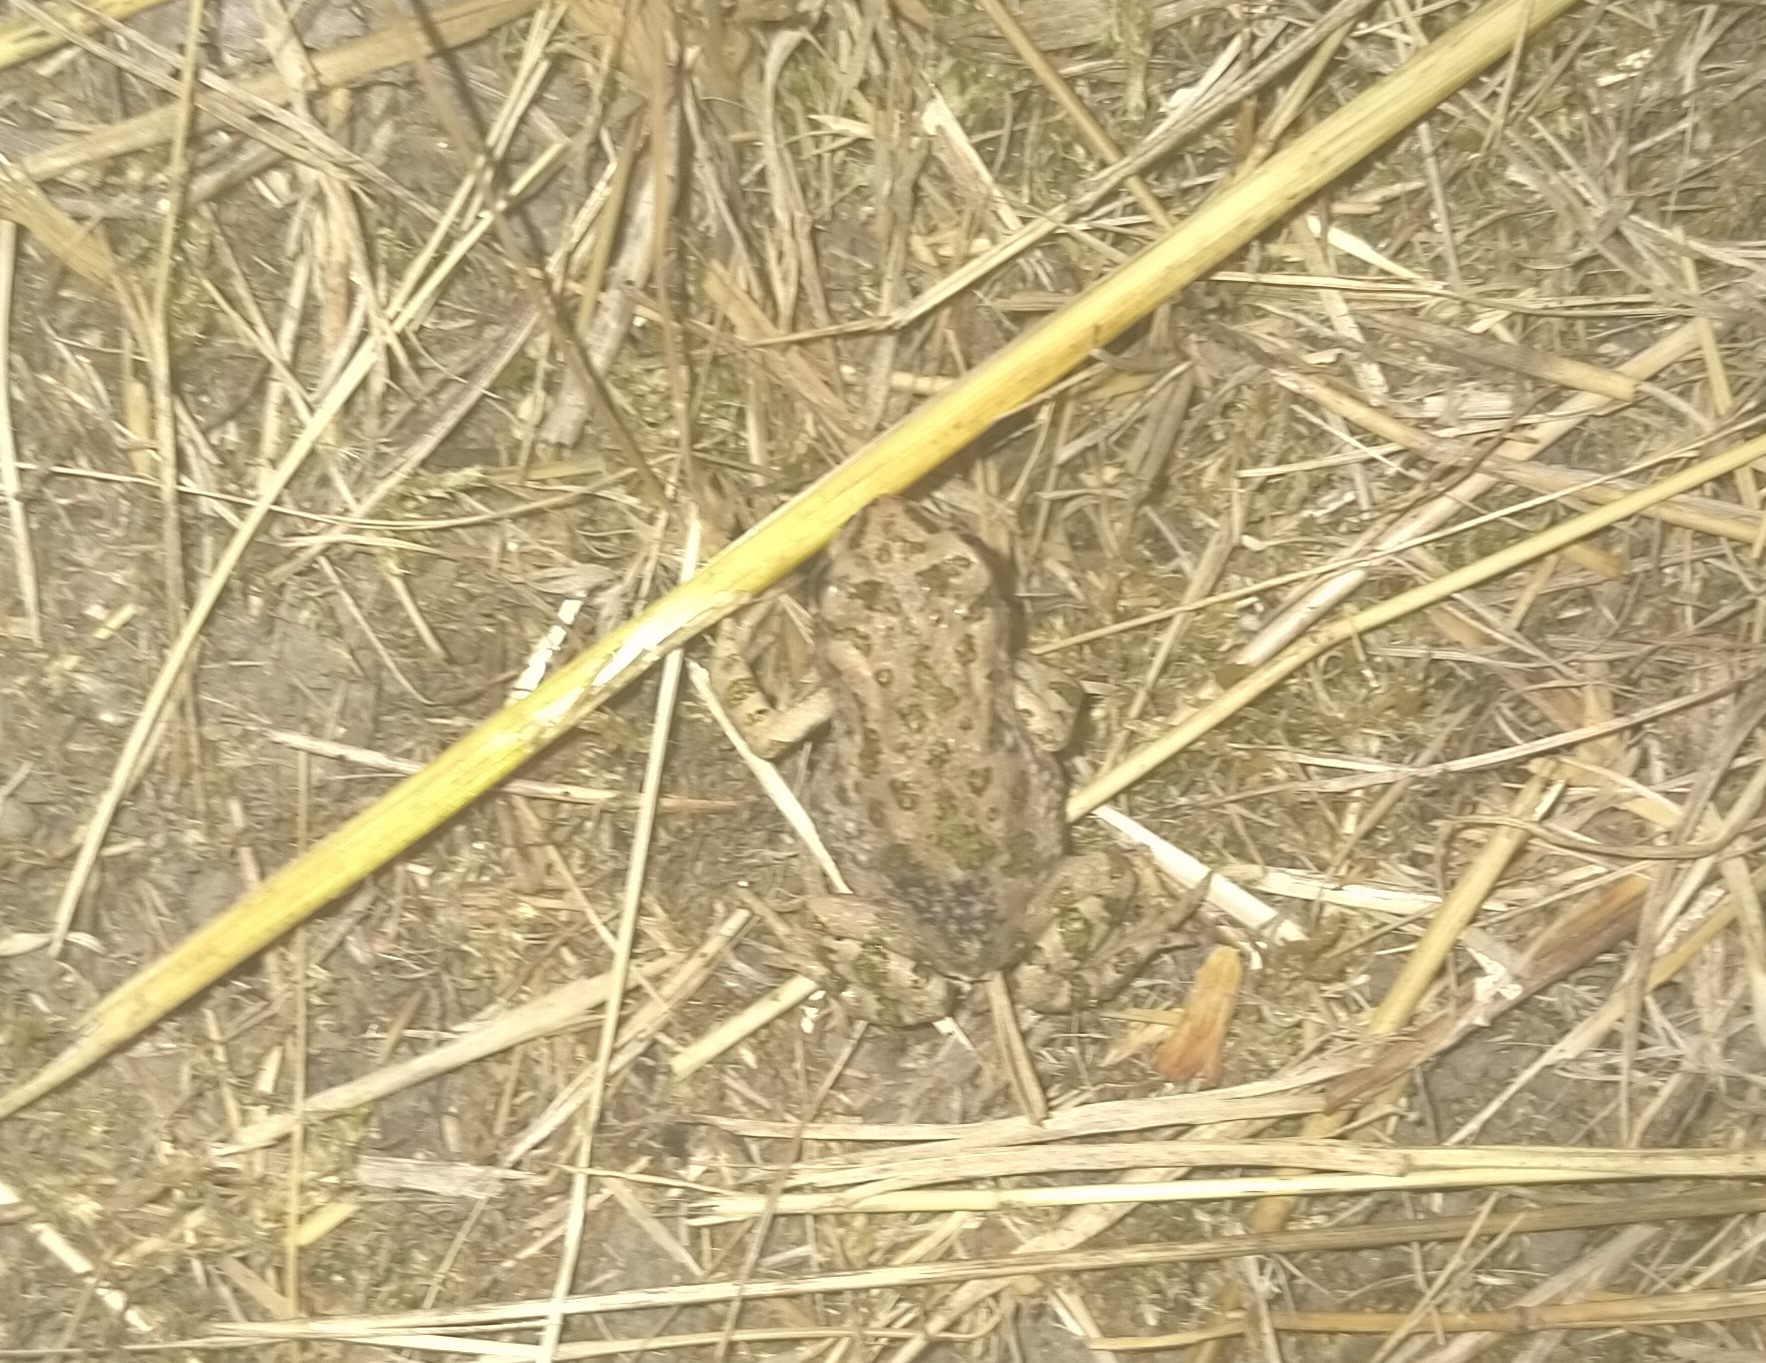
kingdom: Animalia
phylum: Chordata
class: Amphibia
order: Anura
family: Bufonidae
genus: Bufotes
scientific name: Bufotes viridis
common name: European green toad
